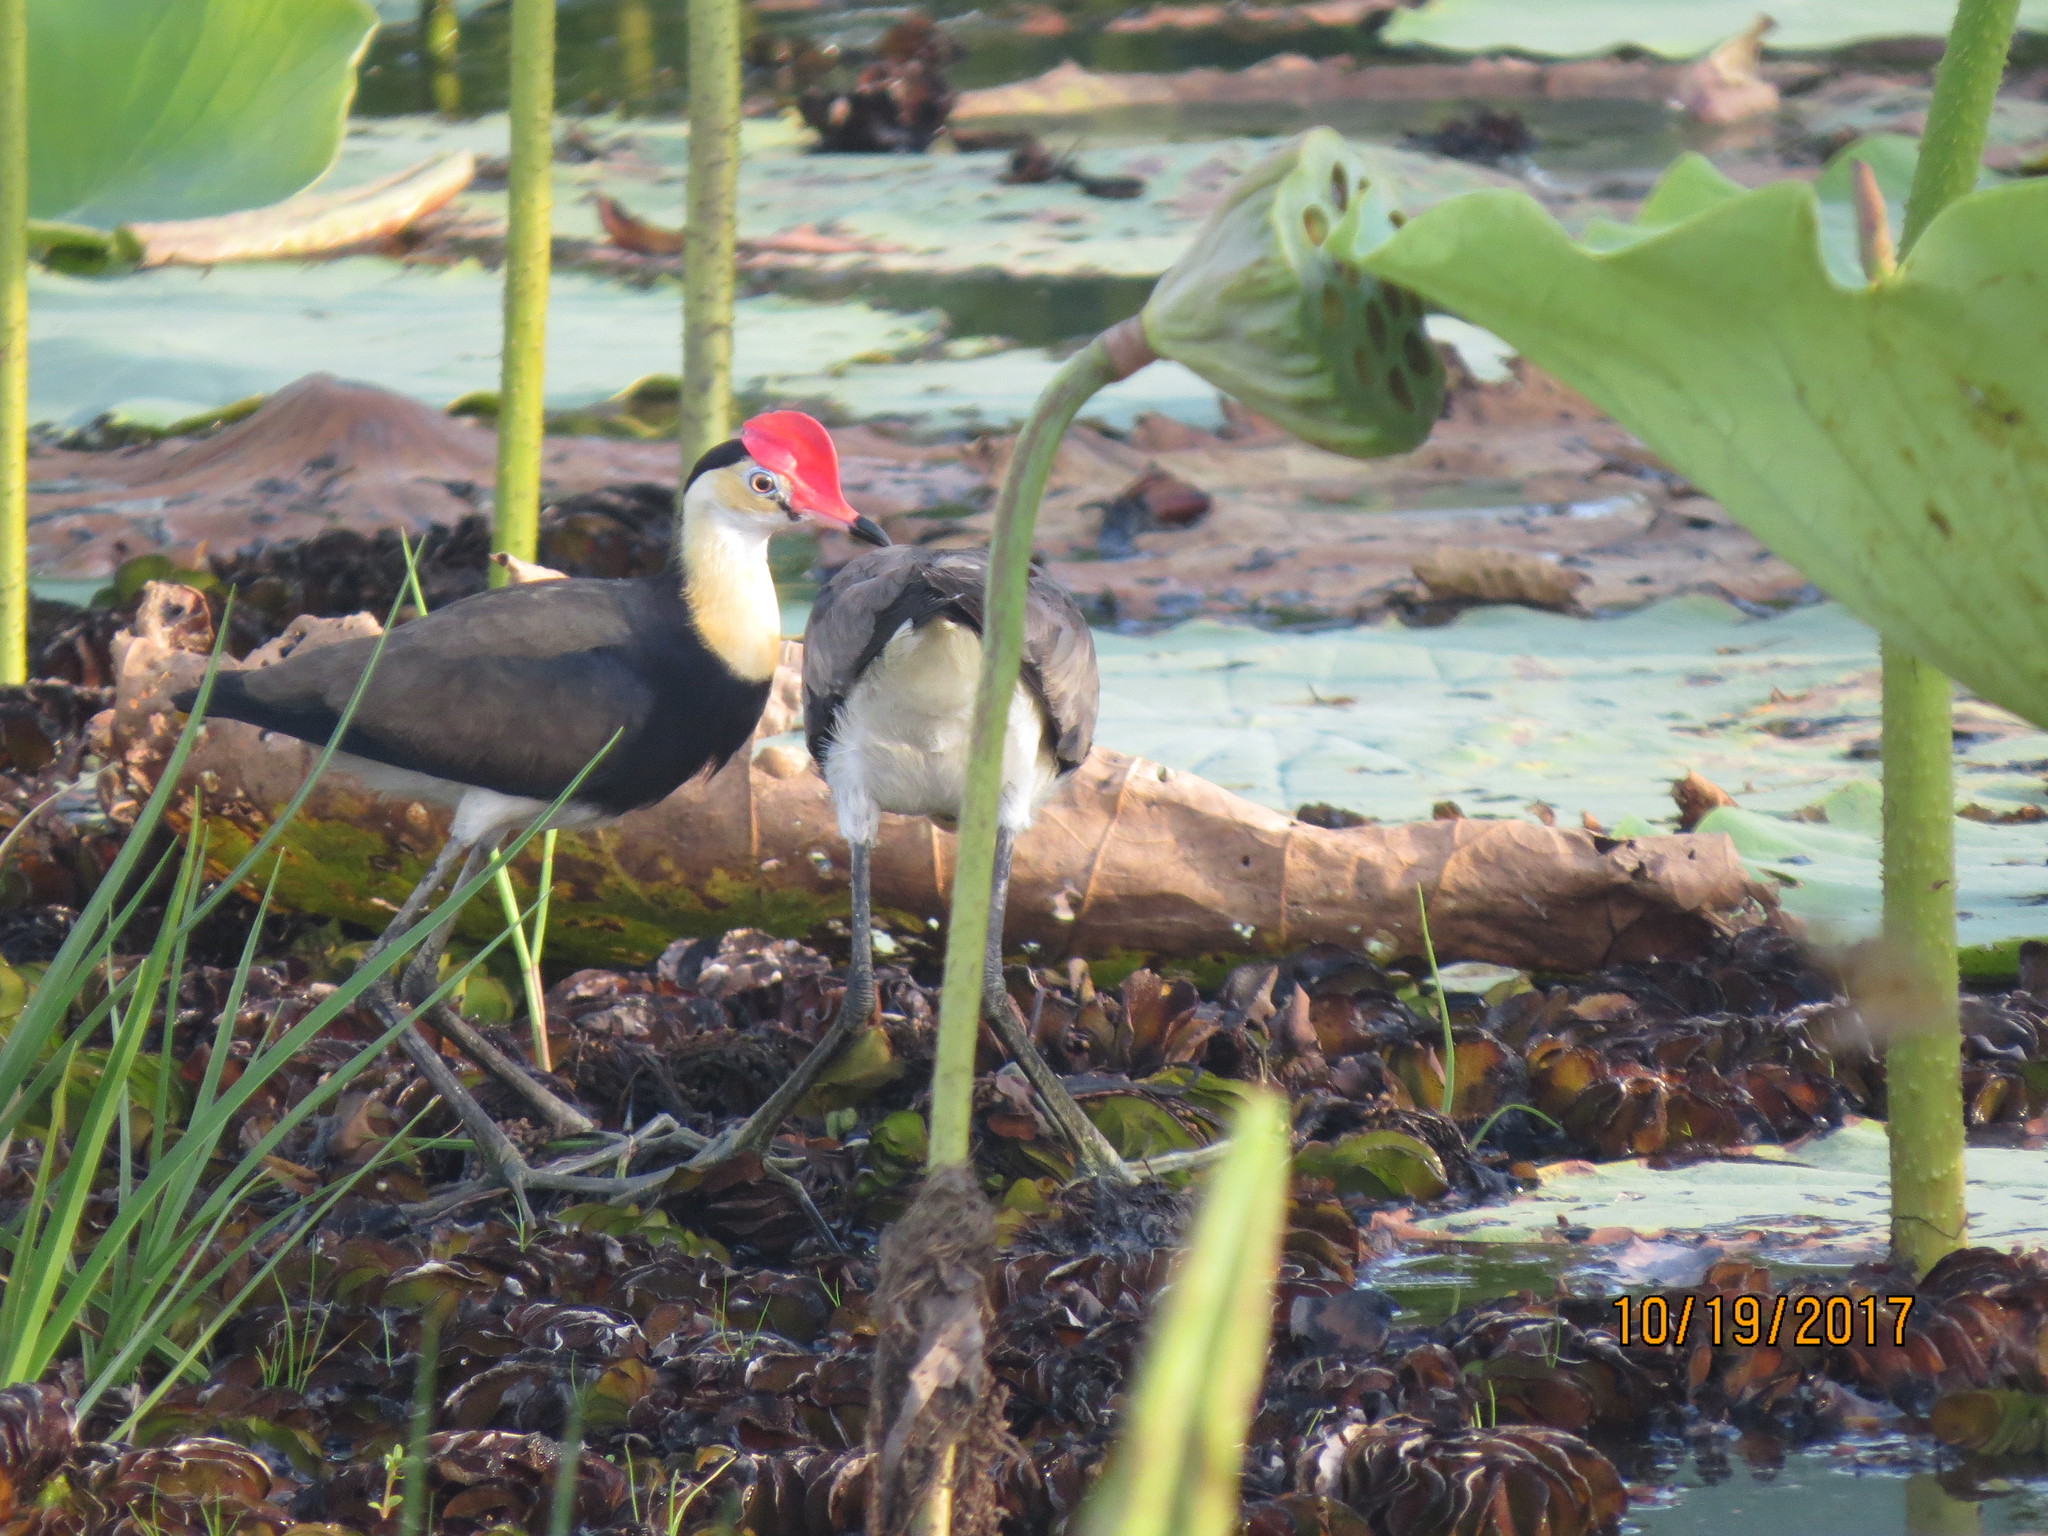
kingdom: Animalia
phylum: Chordata
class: Aves
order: Charadriiformes
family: Jacanidae
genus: Irediparra
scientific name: Irediparra gallinacea
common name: Comb-crested jacana
